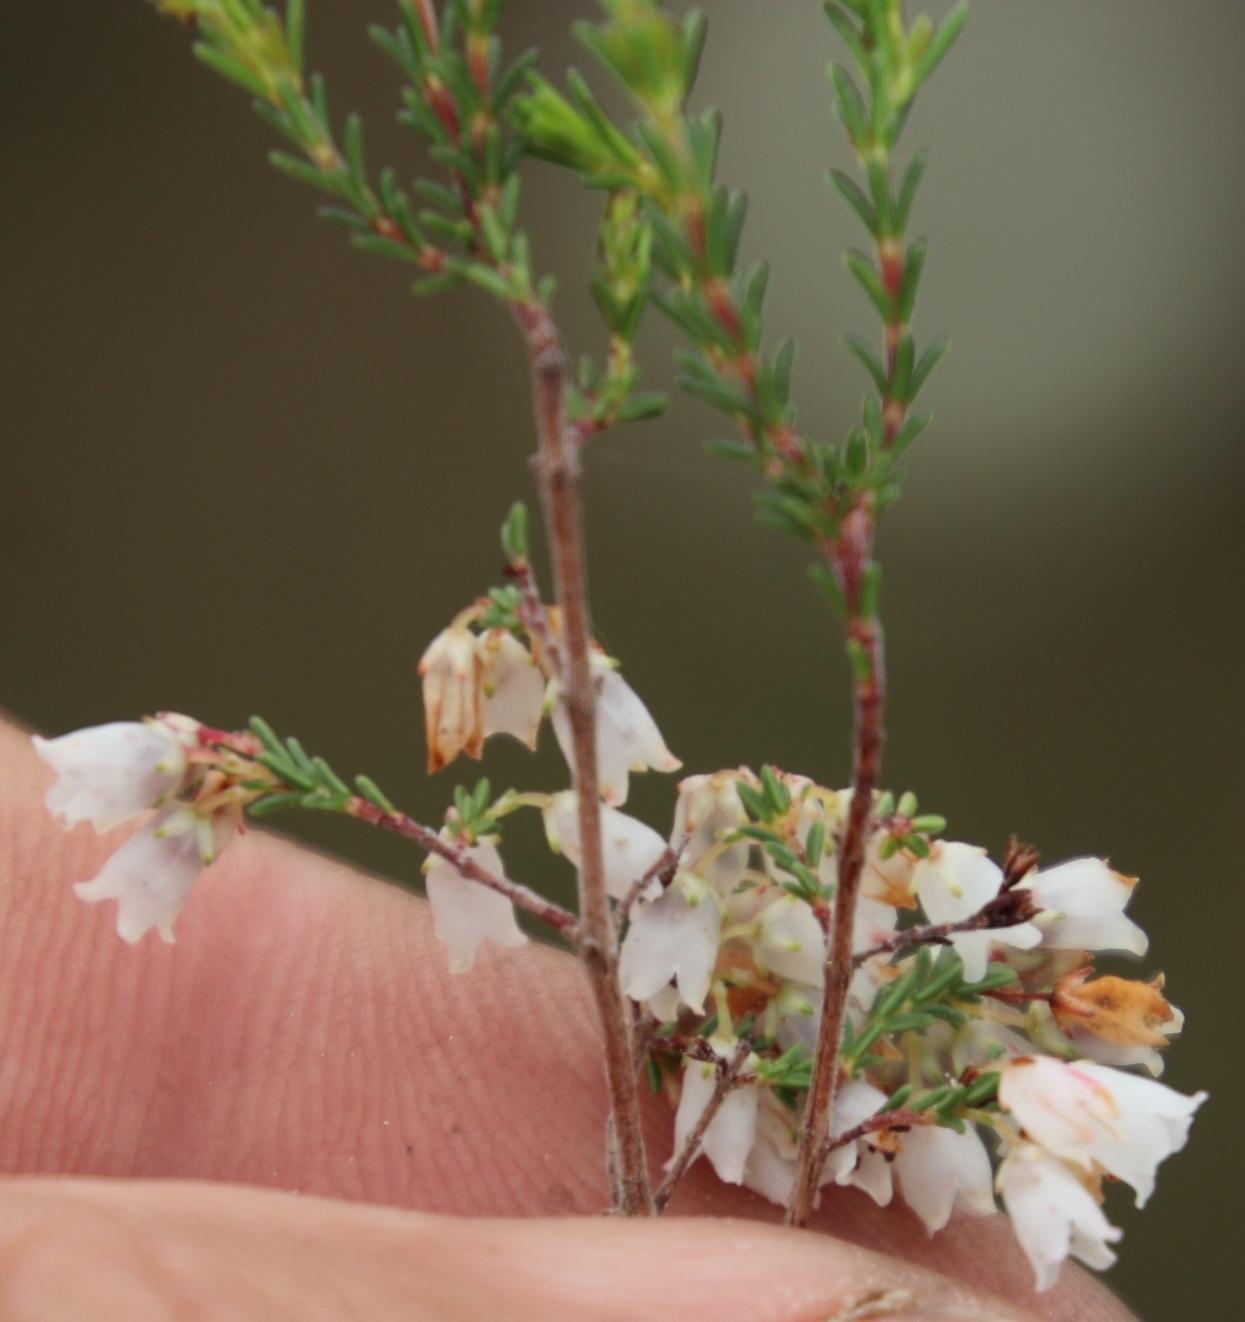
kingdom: Plantae
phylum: Tracheophyta
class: Magnoliopsida
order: Ericales
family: Ericaceae
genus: Erica
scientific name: Erica quadrangularis
